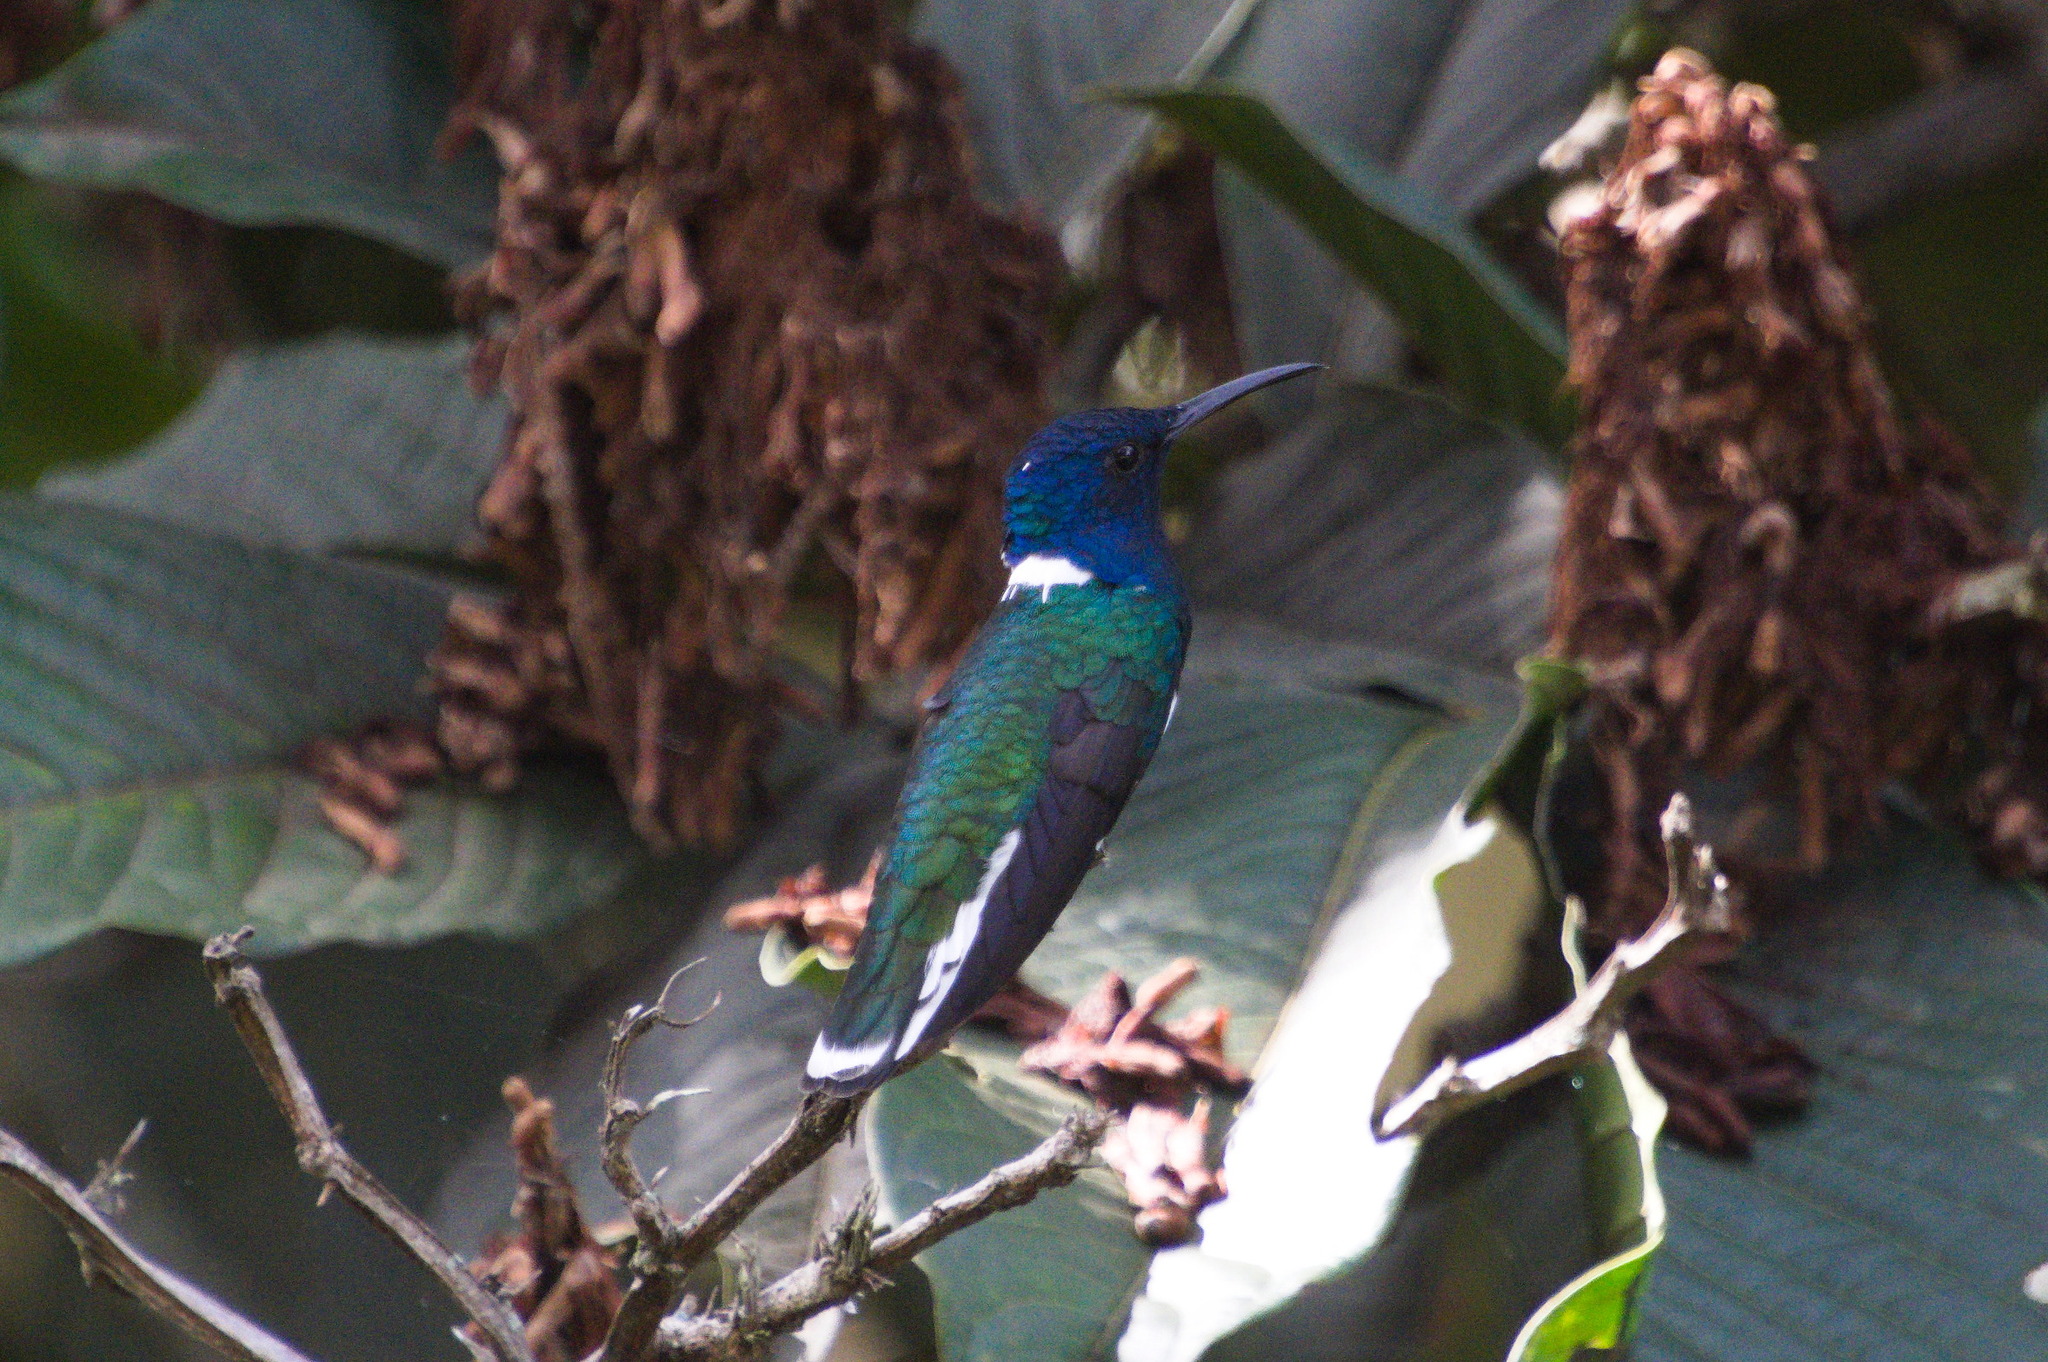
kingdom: Animalia
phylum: Chordata
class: Aves
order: Apodiformes
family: Trochilidae
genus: Florisuga
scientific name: Florisuga mellivora
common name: White-necked jacobin
